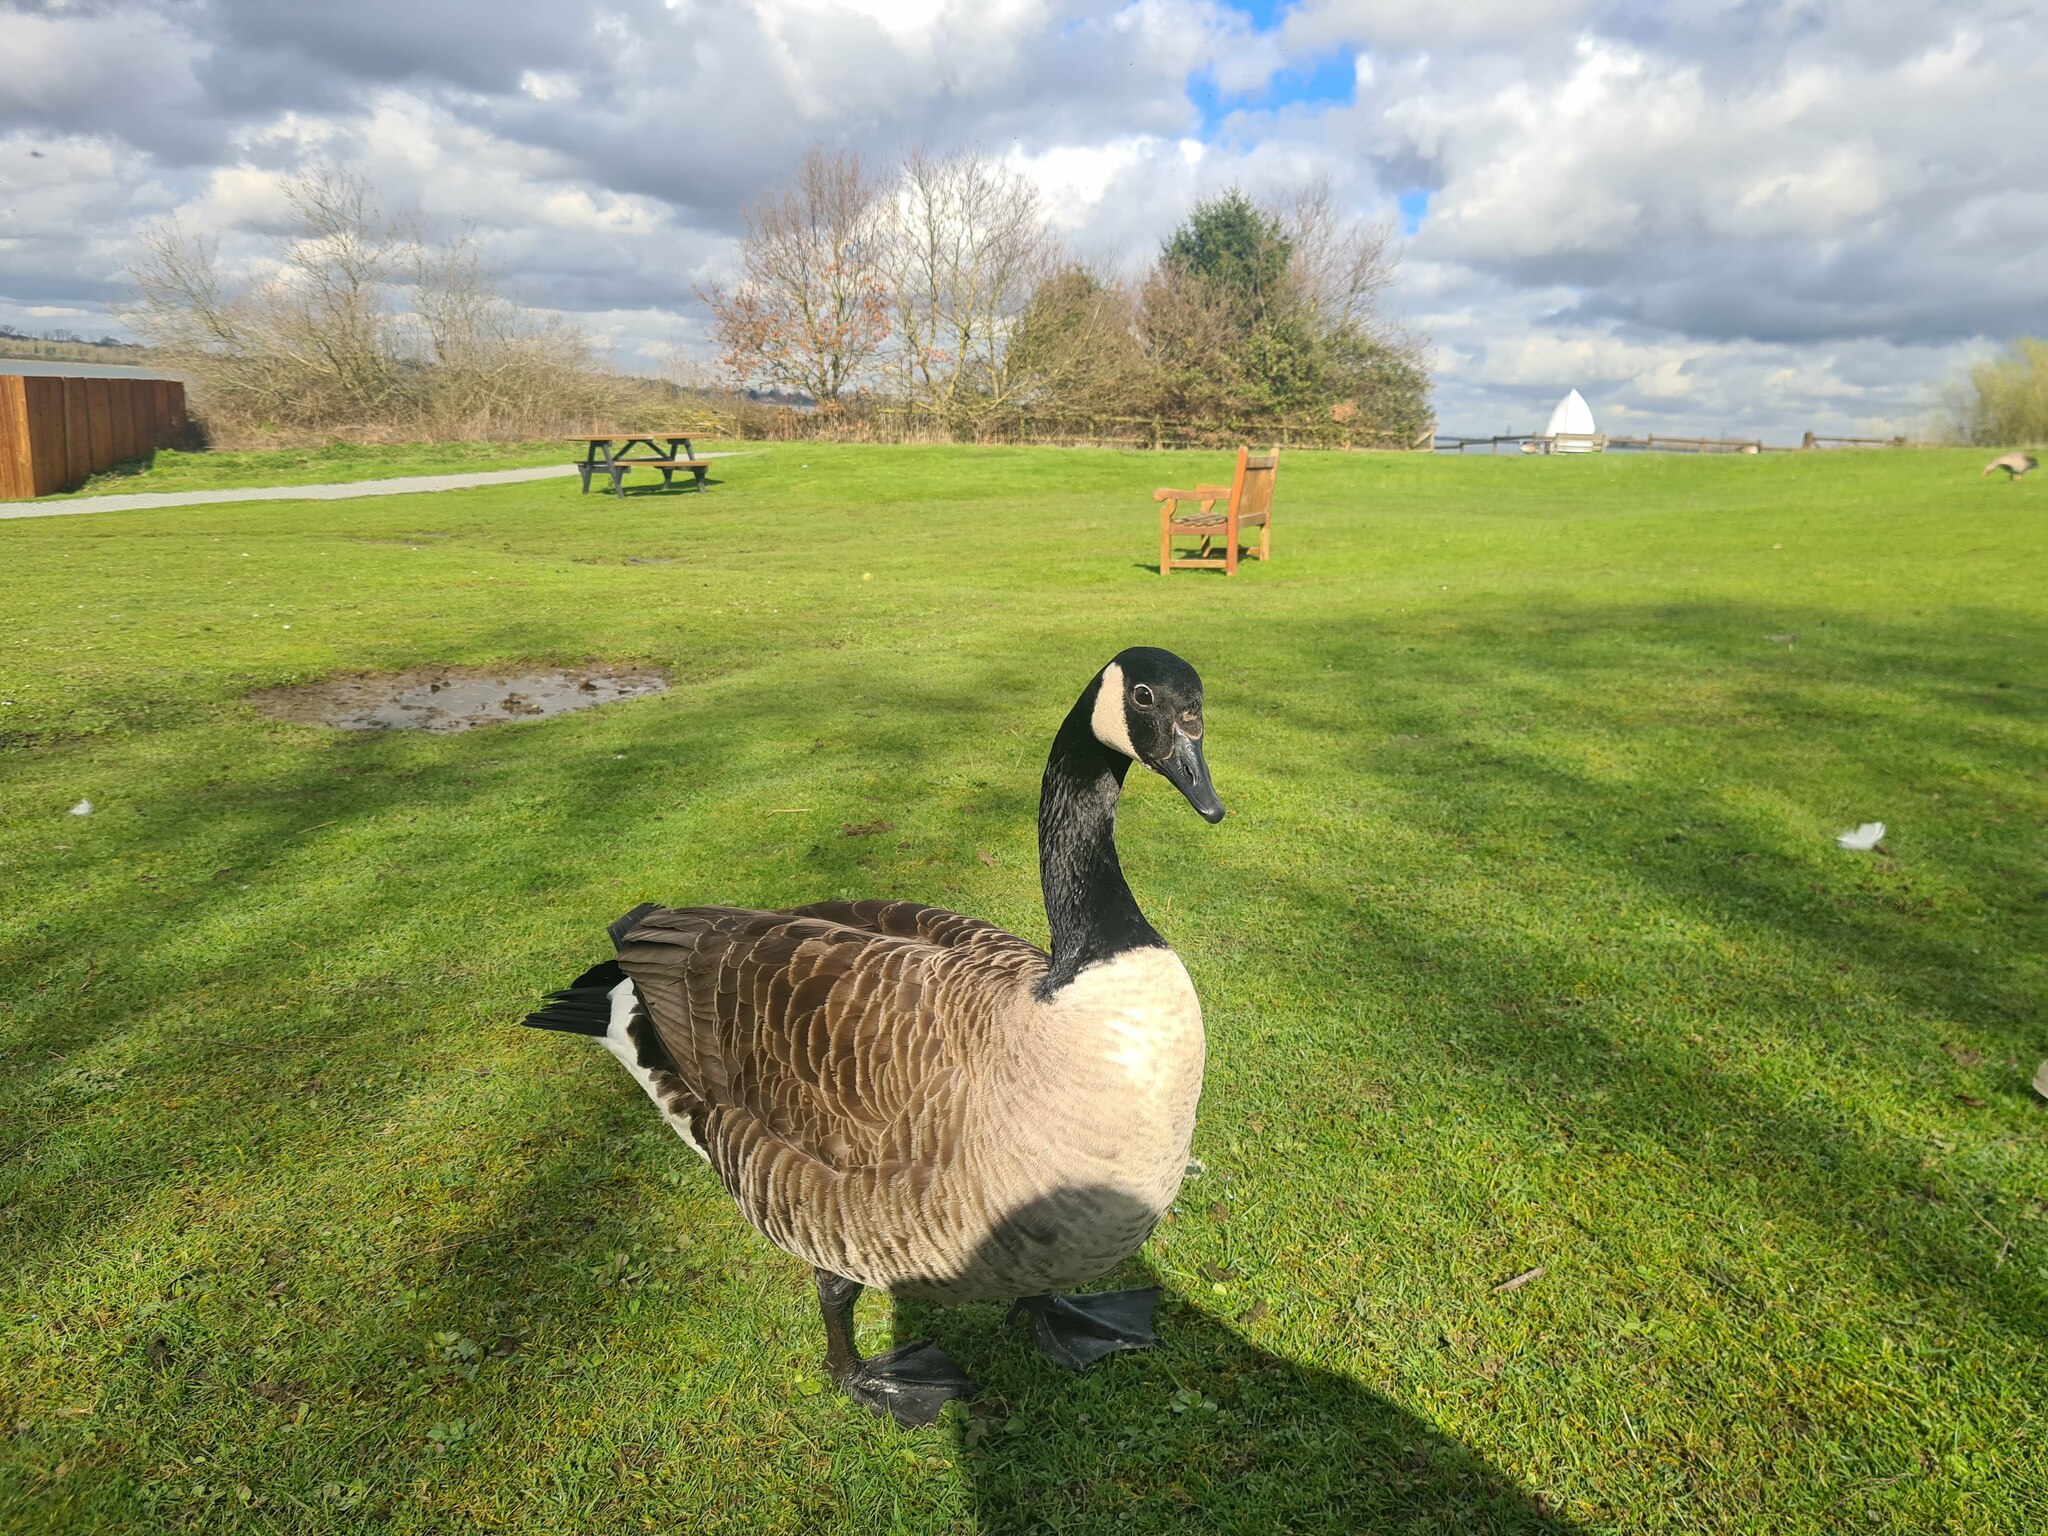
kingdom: Animalia
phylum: Chordata
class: Aves
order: Anseriformes
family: Anatidae
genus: Branta
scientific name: Branta canadensis
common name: Canada goose
